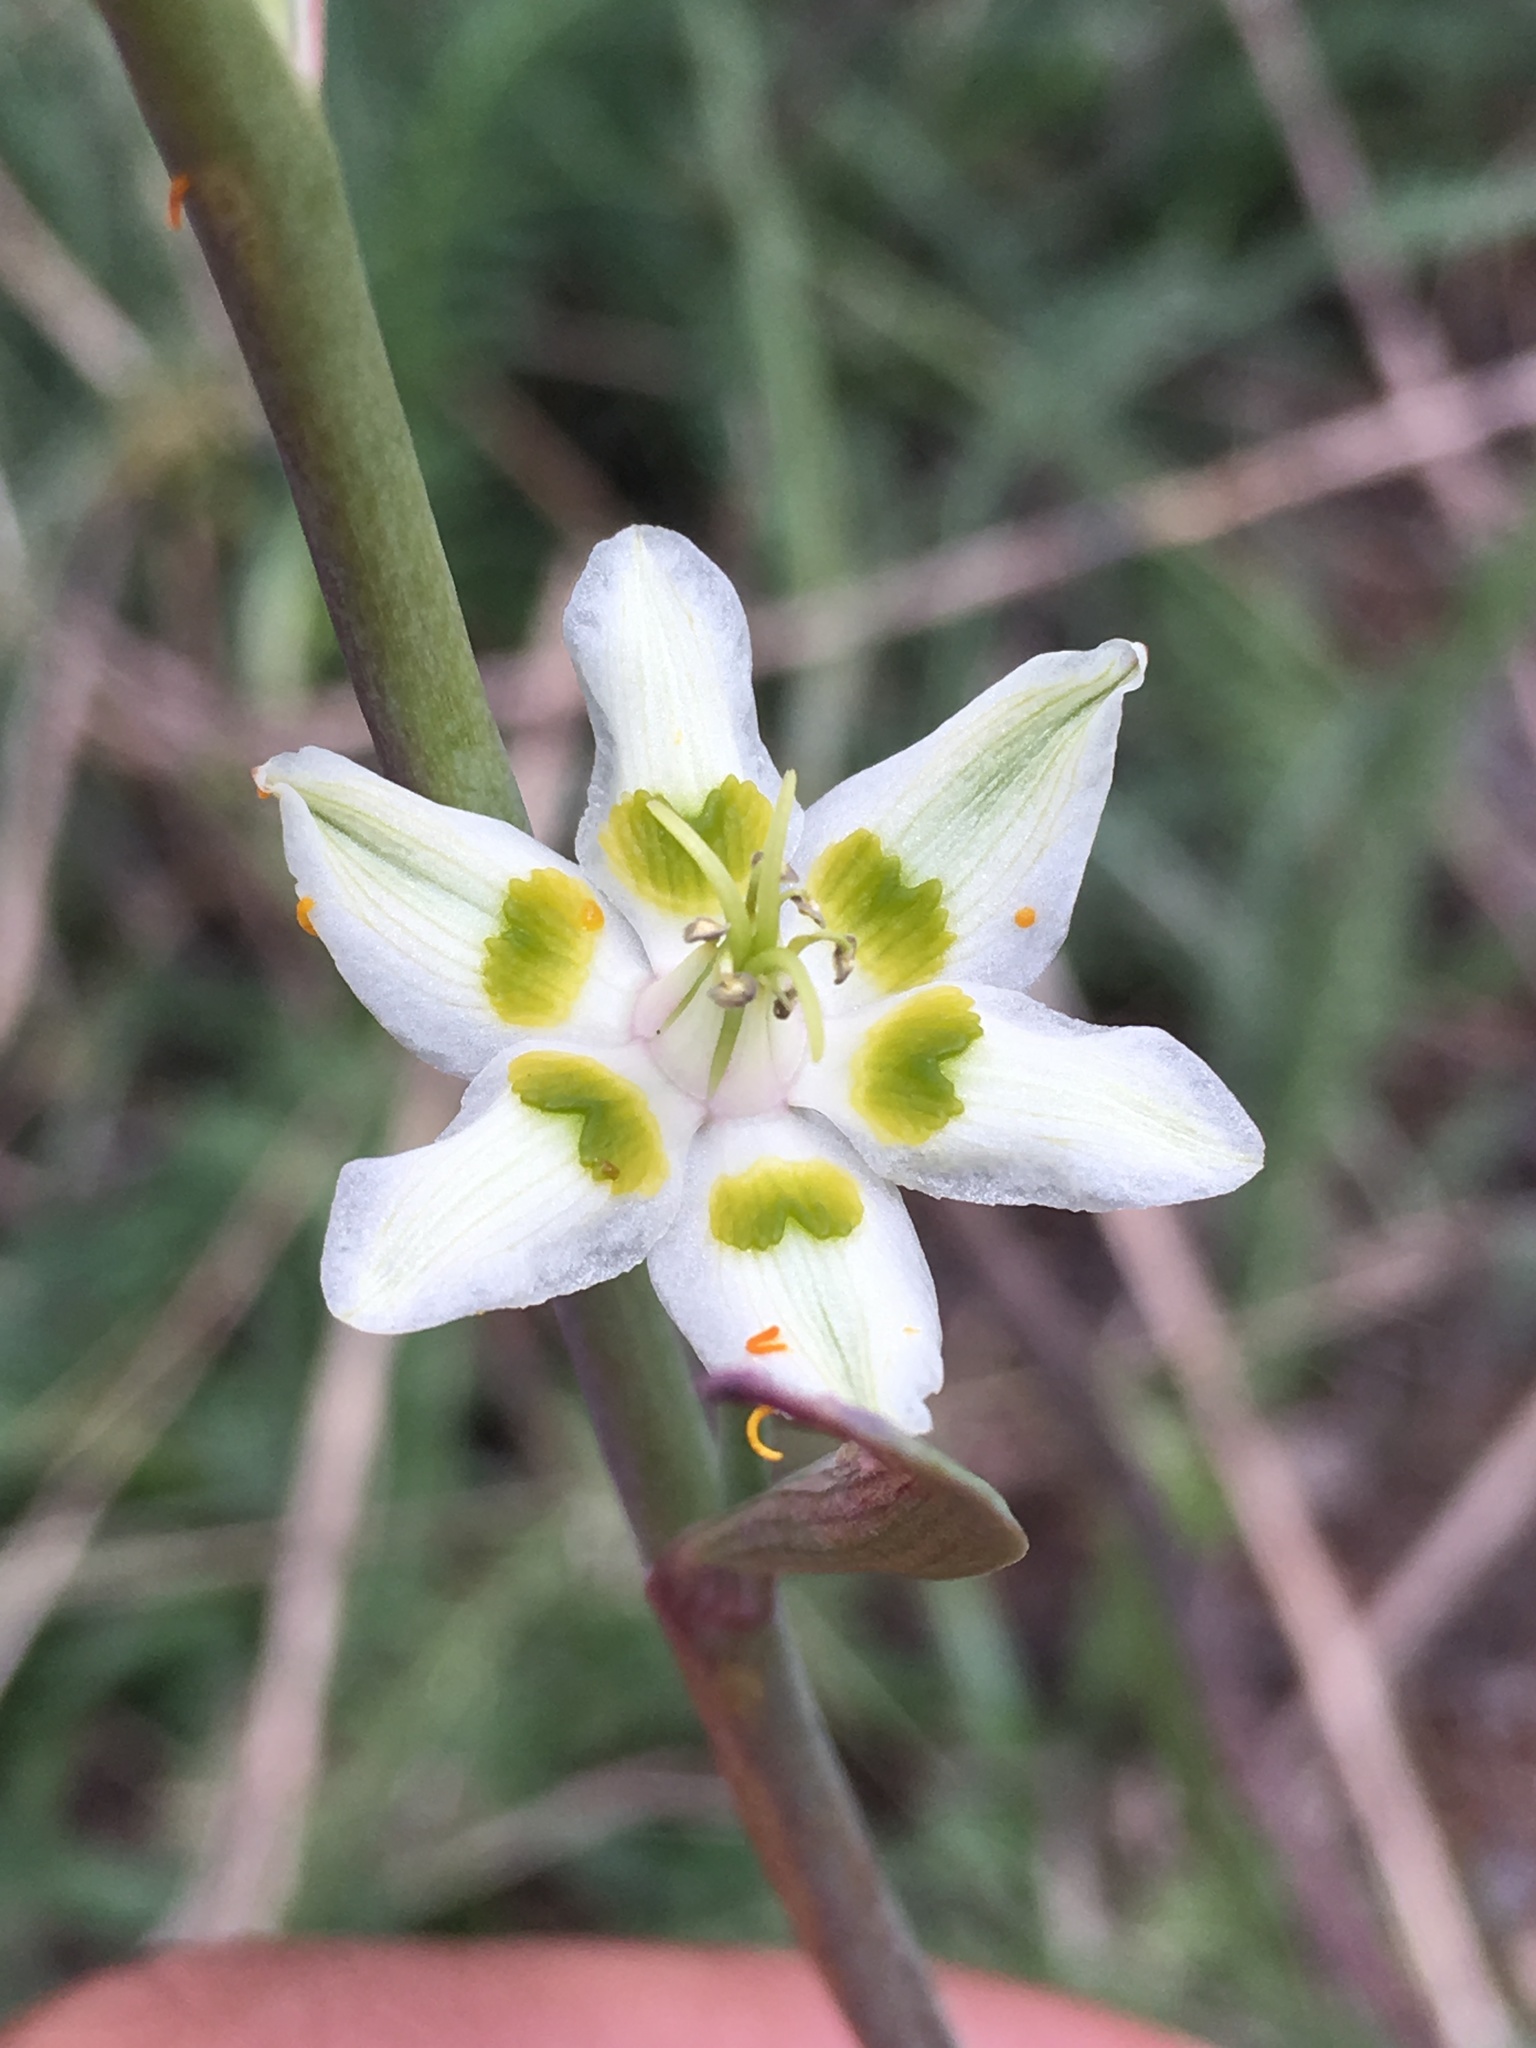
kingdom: Plantae
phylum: Tracheophyta
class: Liliopsida
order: Liliales
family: Melanthiaceae
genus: Anticlea
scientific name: Anticlea elegans
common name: Mountain death camas
